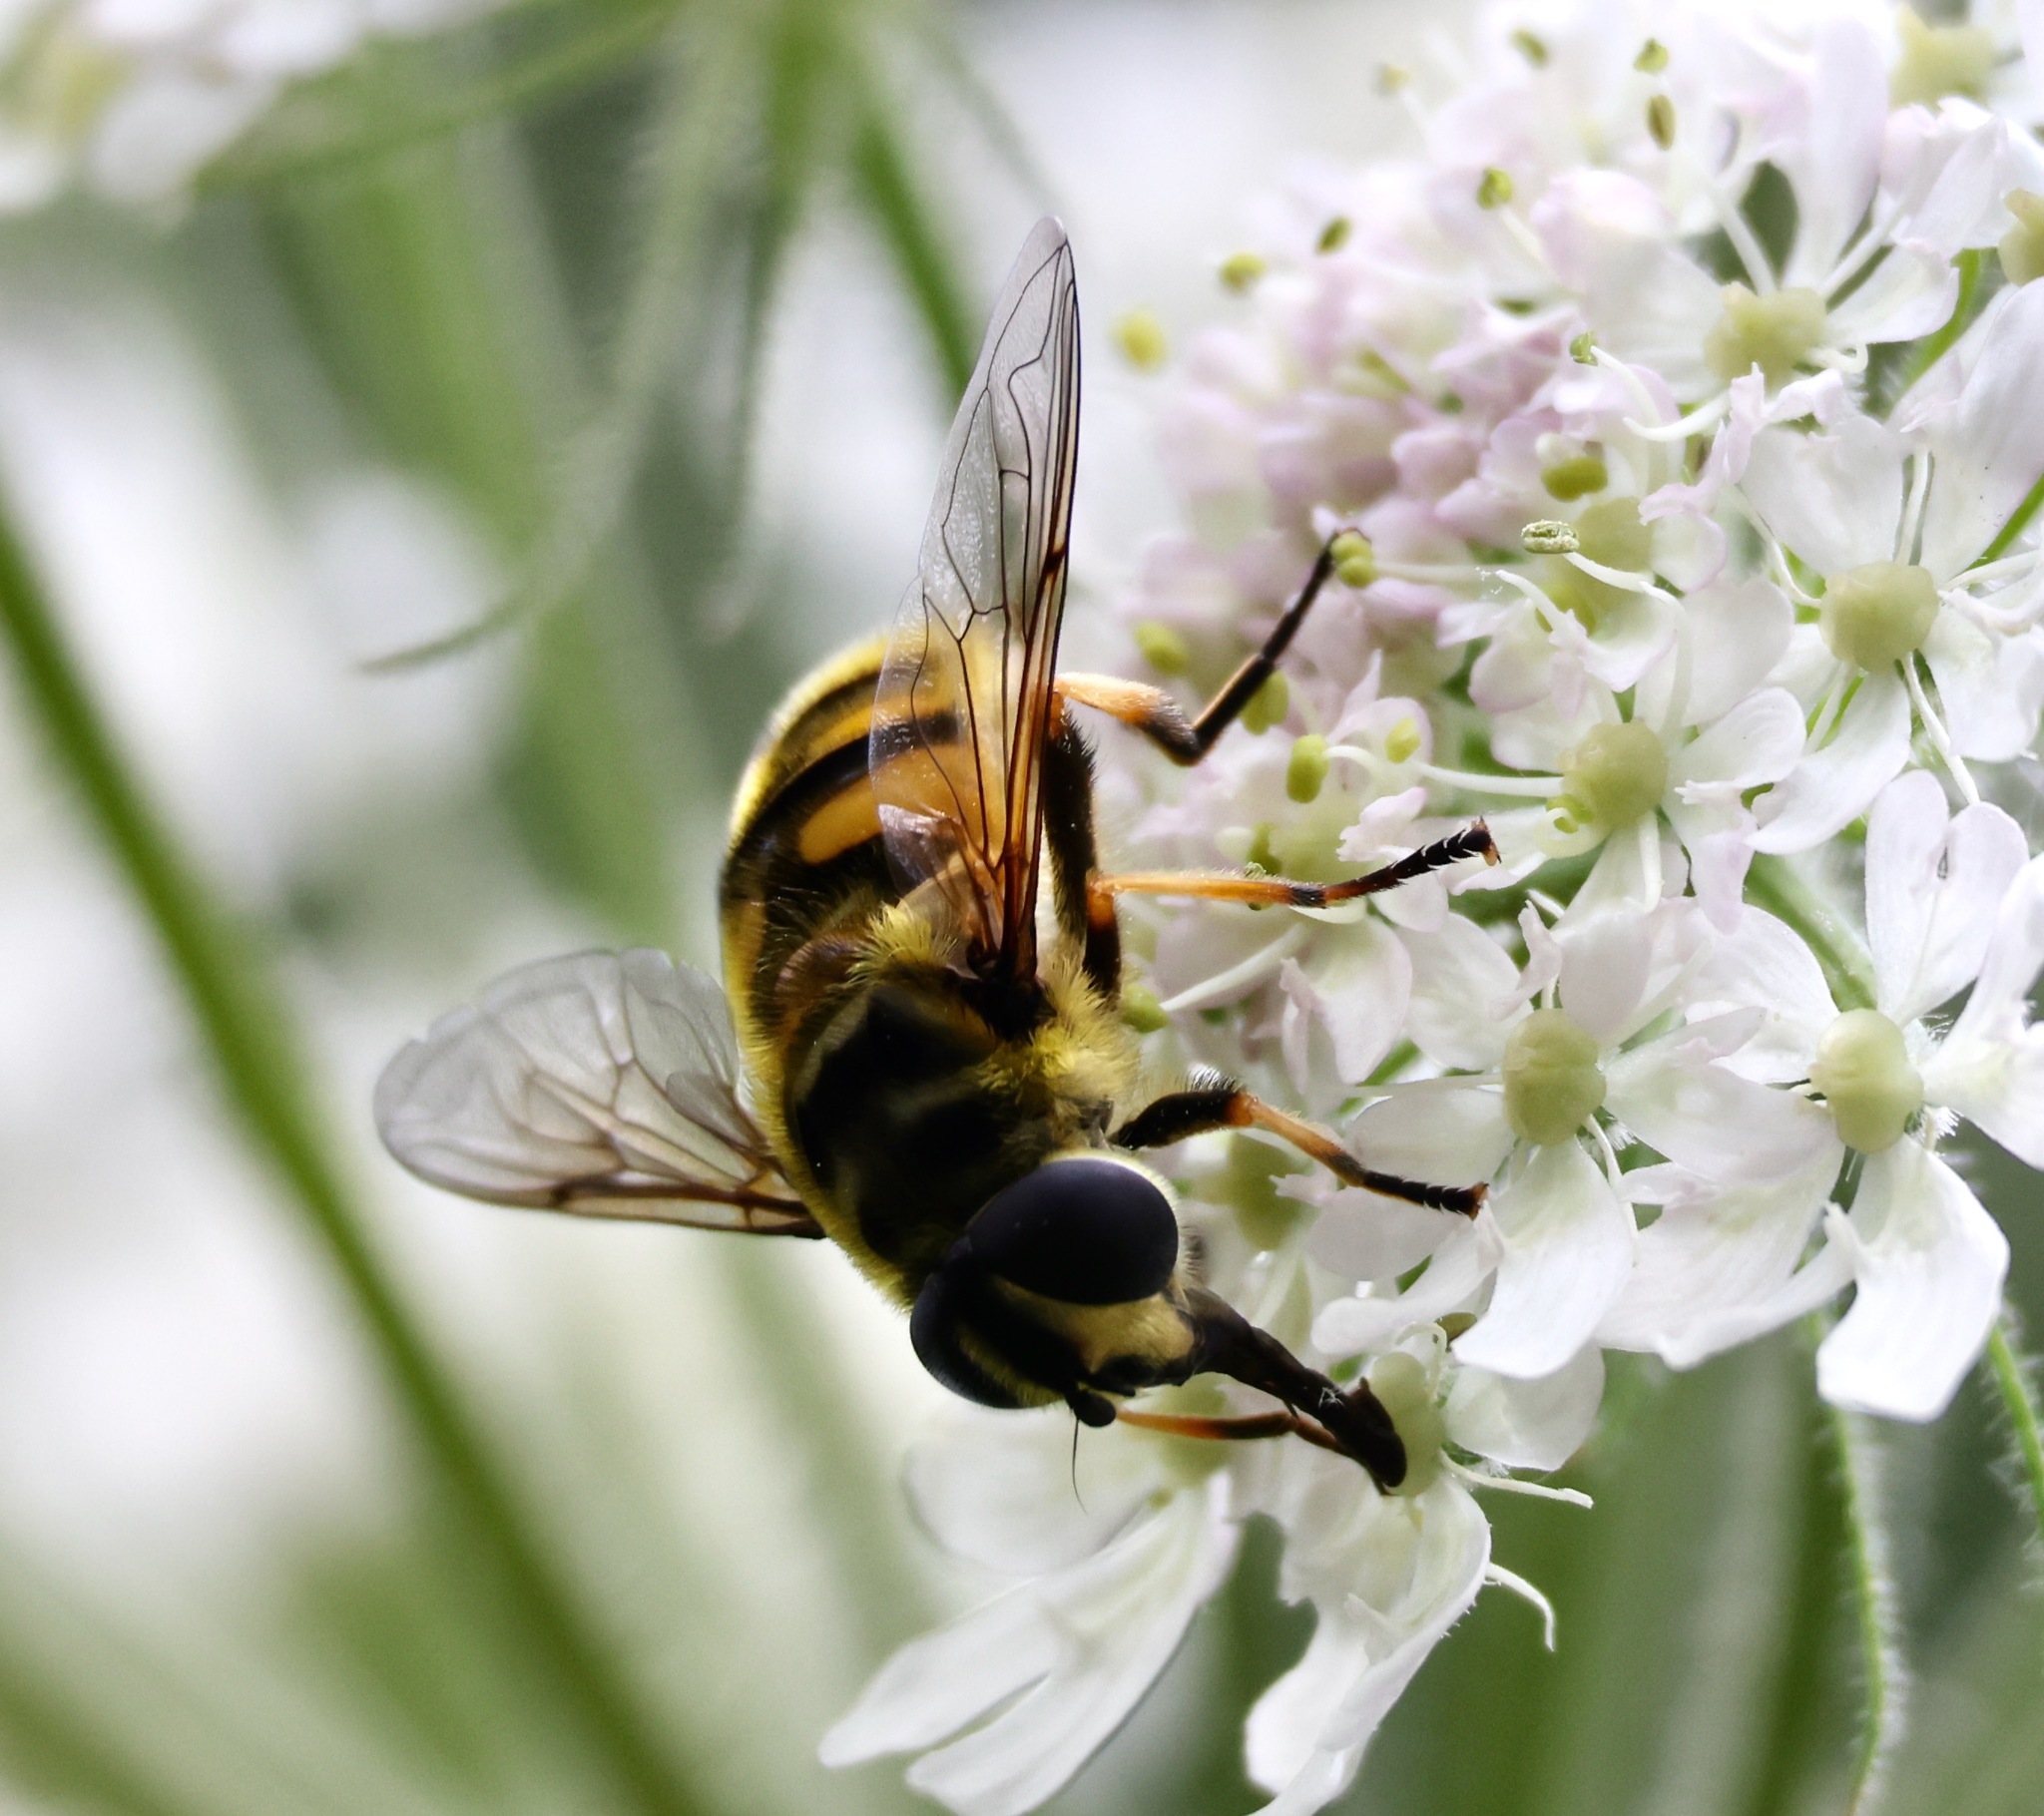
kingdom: Animalia
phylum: Arthropoda
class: Insecta
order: Diptera
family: Syrphidae
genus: Myathropa
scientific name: Myathropa florea
